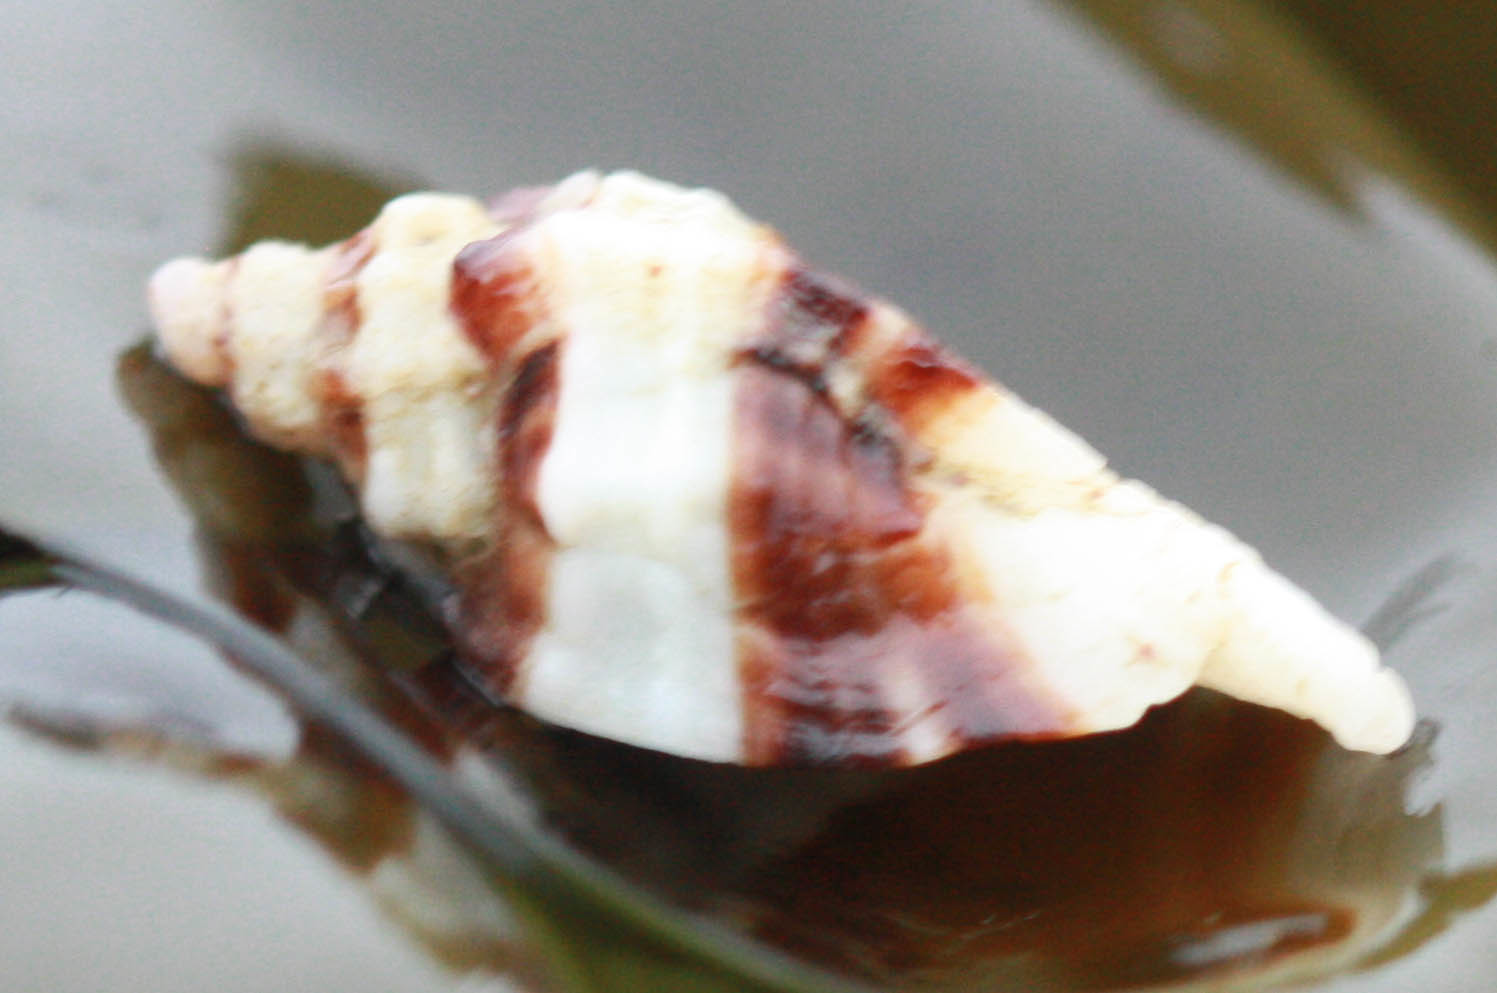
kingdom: Animalia
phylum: Mollusca
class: Gastropoda
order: Neogastropoda
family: Muricidae
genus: Ceratostoma
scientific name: Ceratostoma foliatum
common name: Foliate thorn purpura
